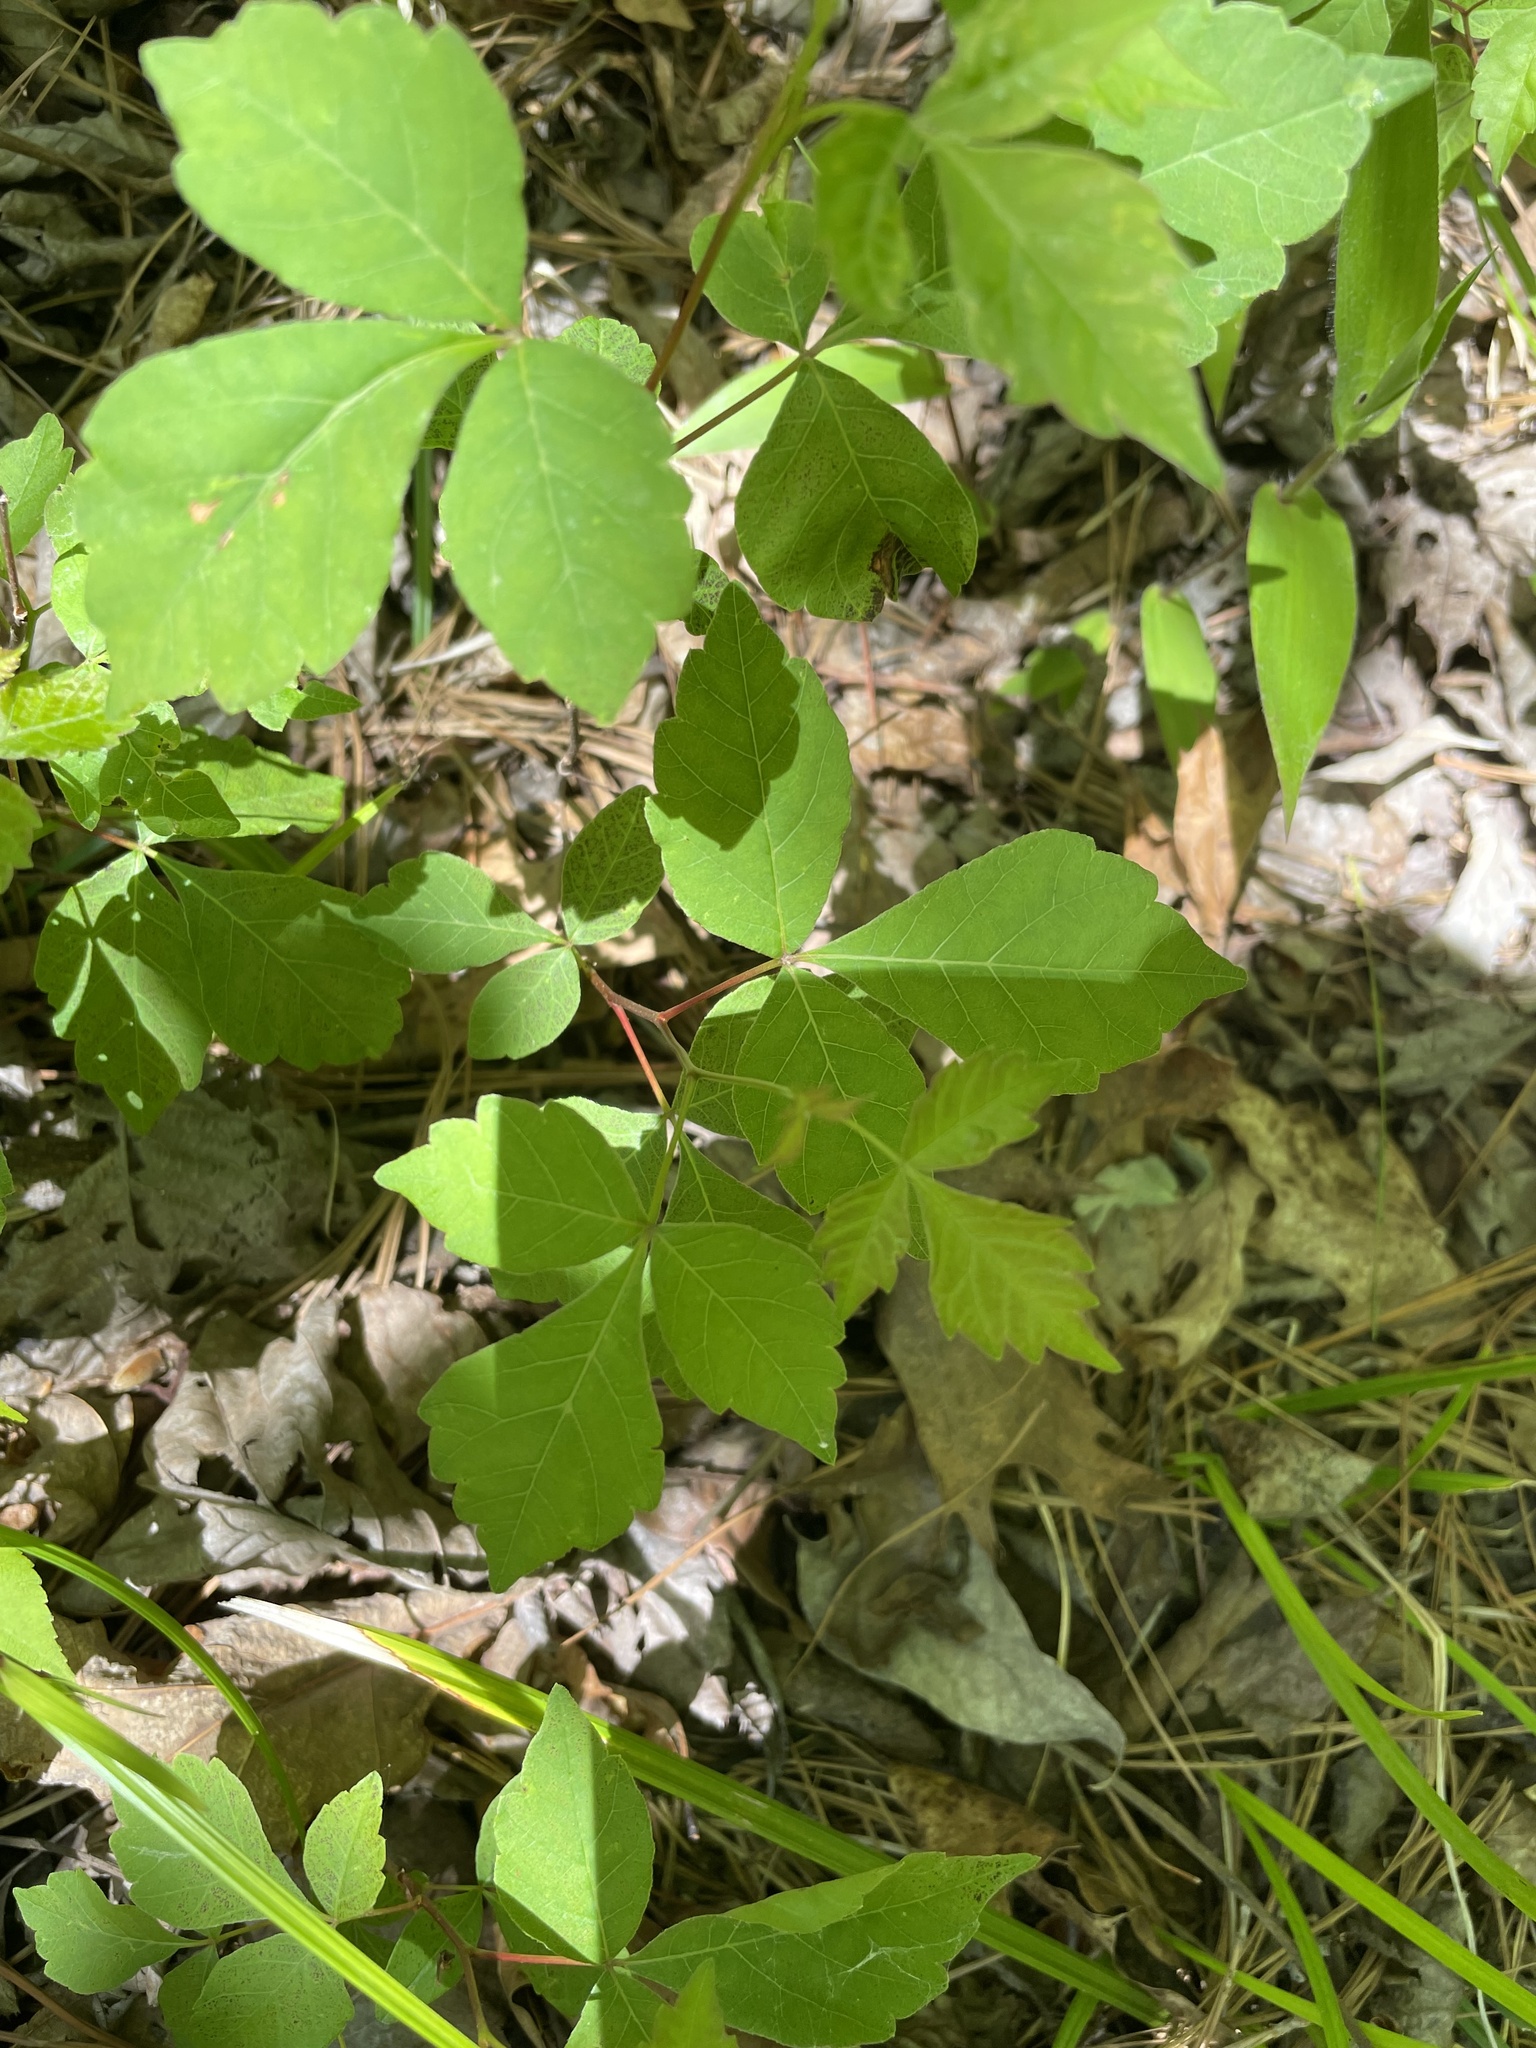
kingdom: Plantae
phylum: Tracheophyta
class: Magnoliopsida
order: Sapindales
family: Anacardiaceae
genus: Rhus
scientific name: Rhus aromatica
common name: Aromatic sumac
